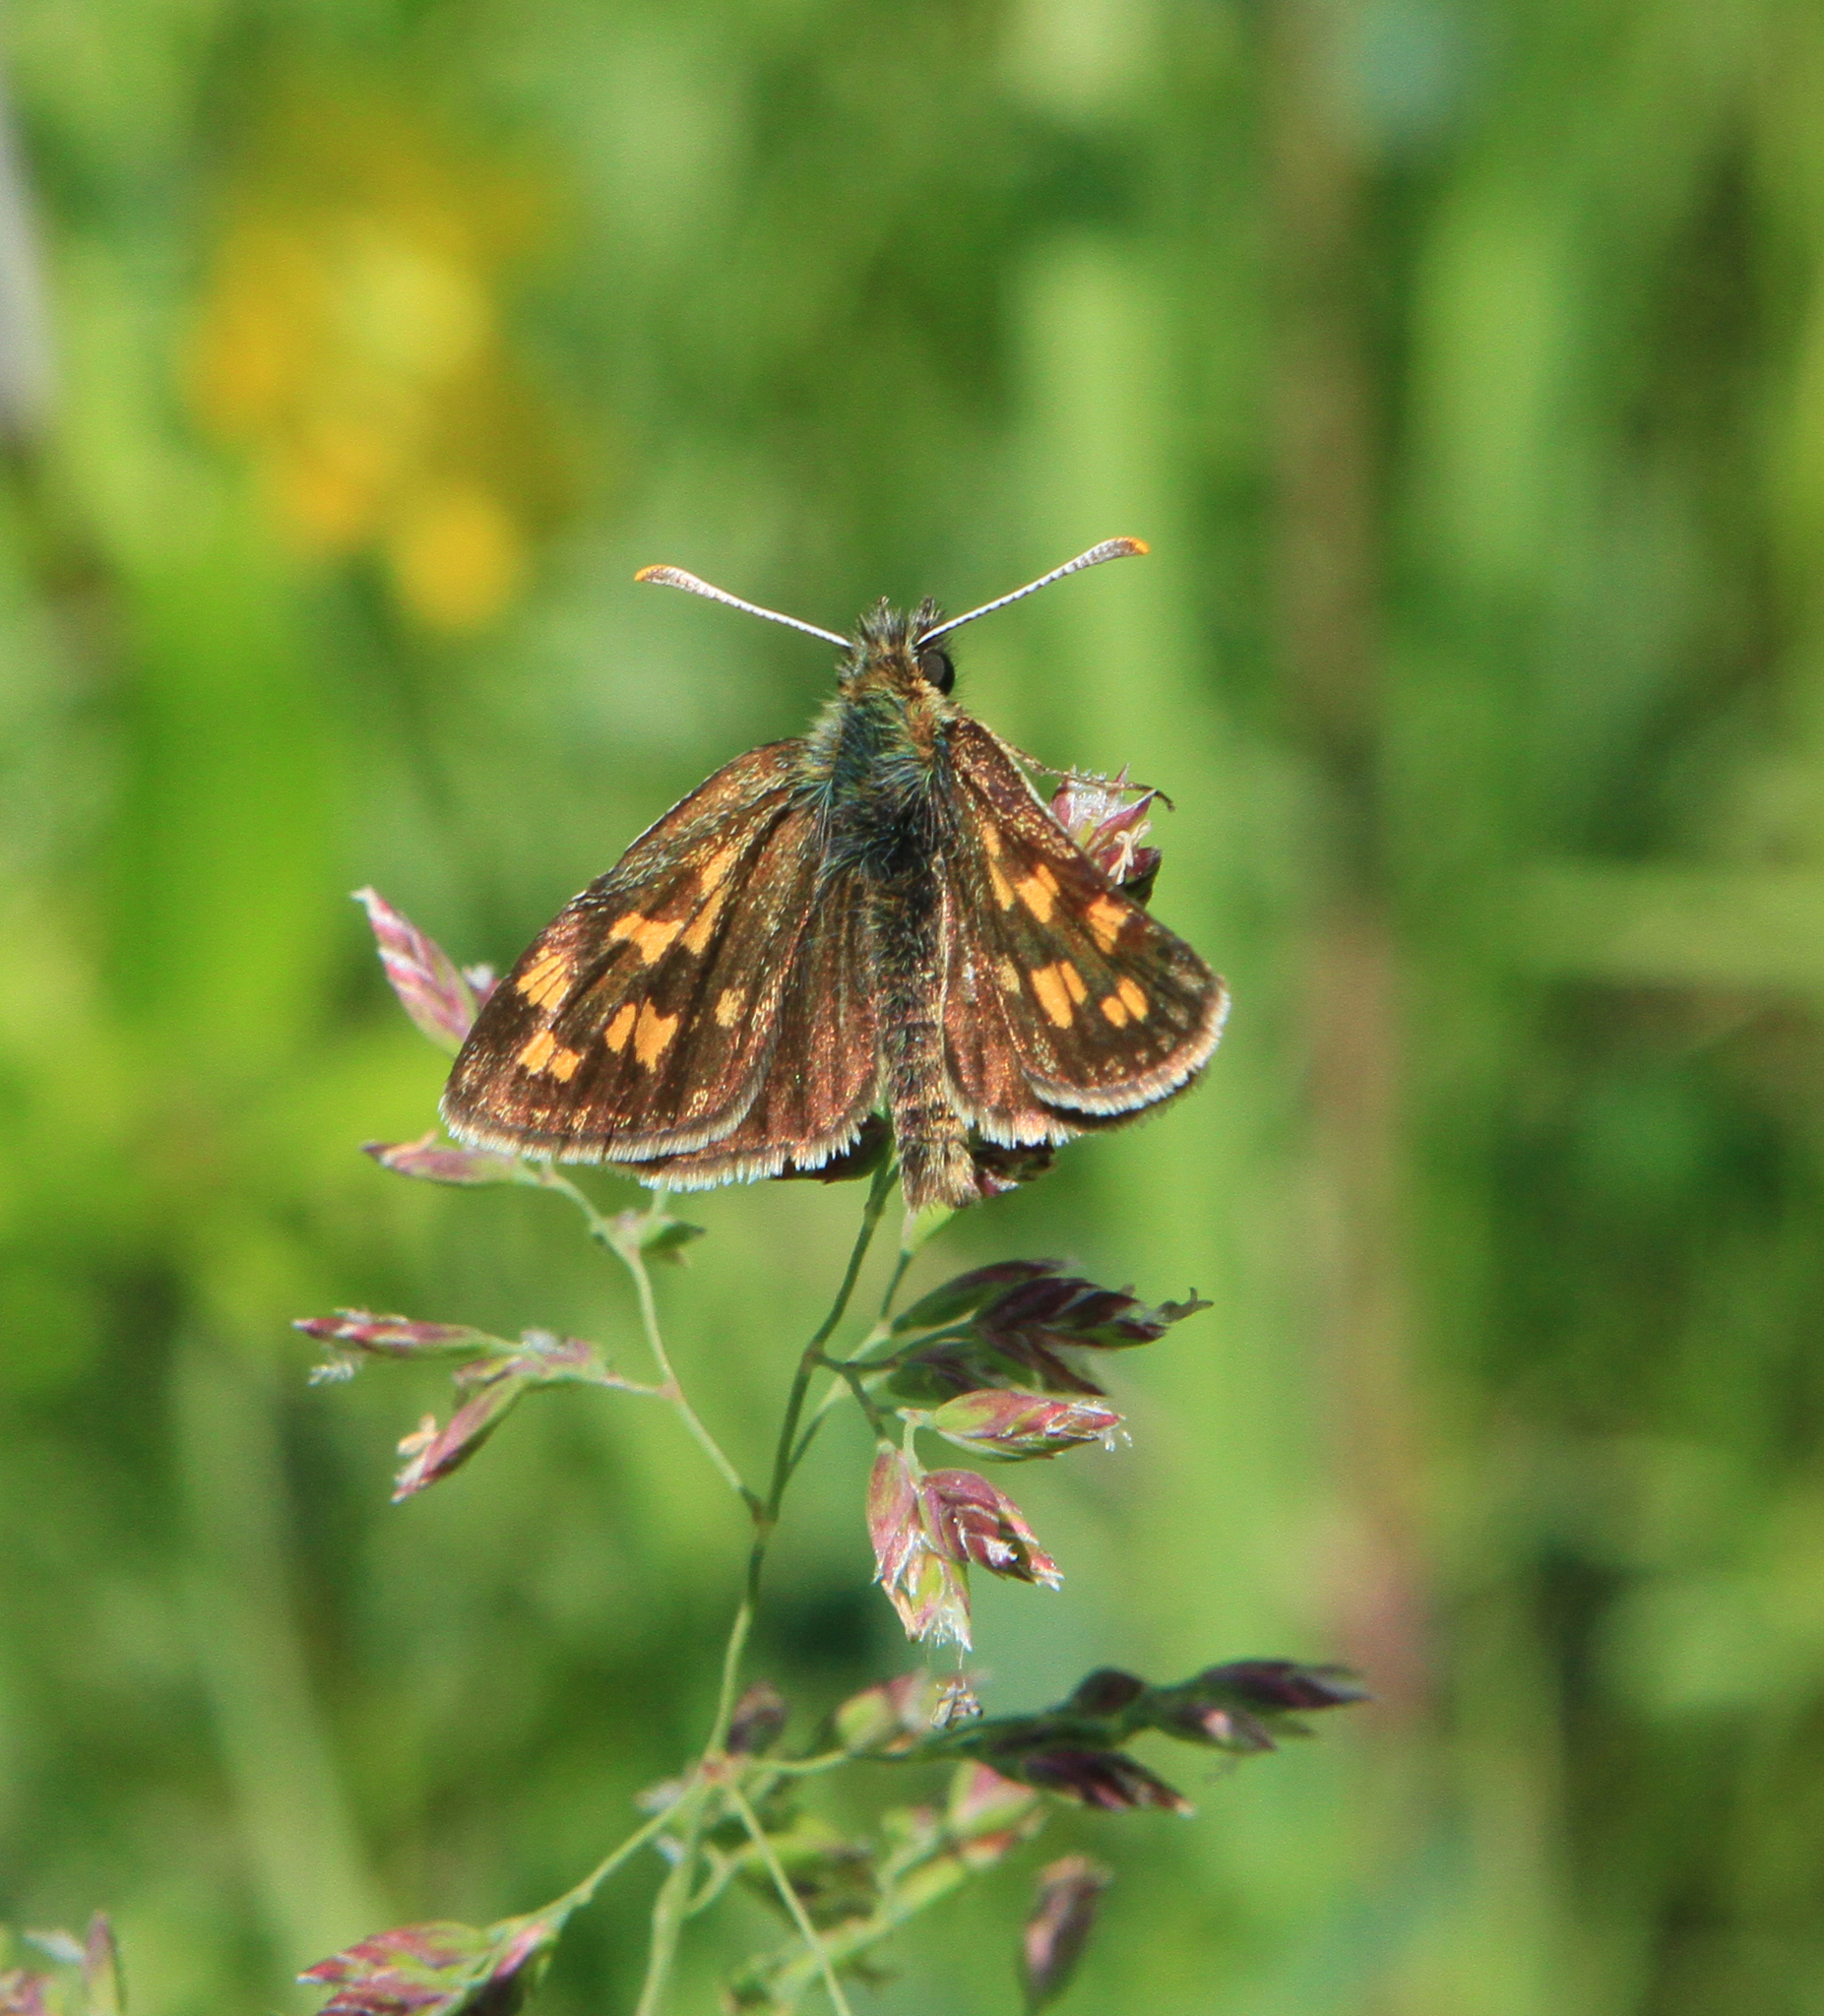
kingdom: Animalia
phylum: Arthropoda
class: Insecta
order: Lepidoptera
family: Hesperiidae
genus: Carterocephalus
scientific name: Carterocephalus palaemon
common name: Chequered skipper
